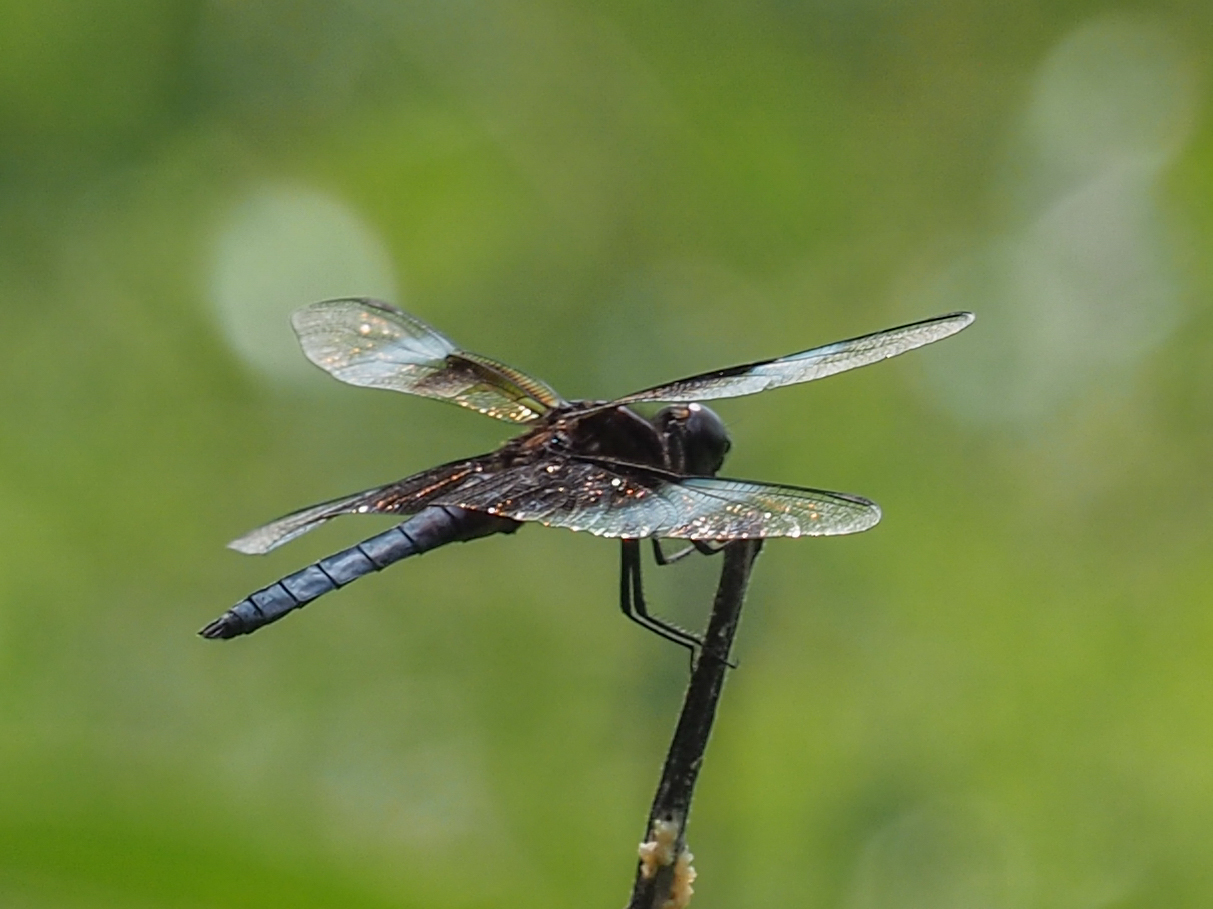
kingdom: Animalia
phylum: Arthropoda
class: Insecta
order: Odonata
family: Libellulidae
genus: Libellula
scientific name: Libellula luctuosa
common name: Widow skimmer
